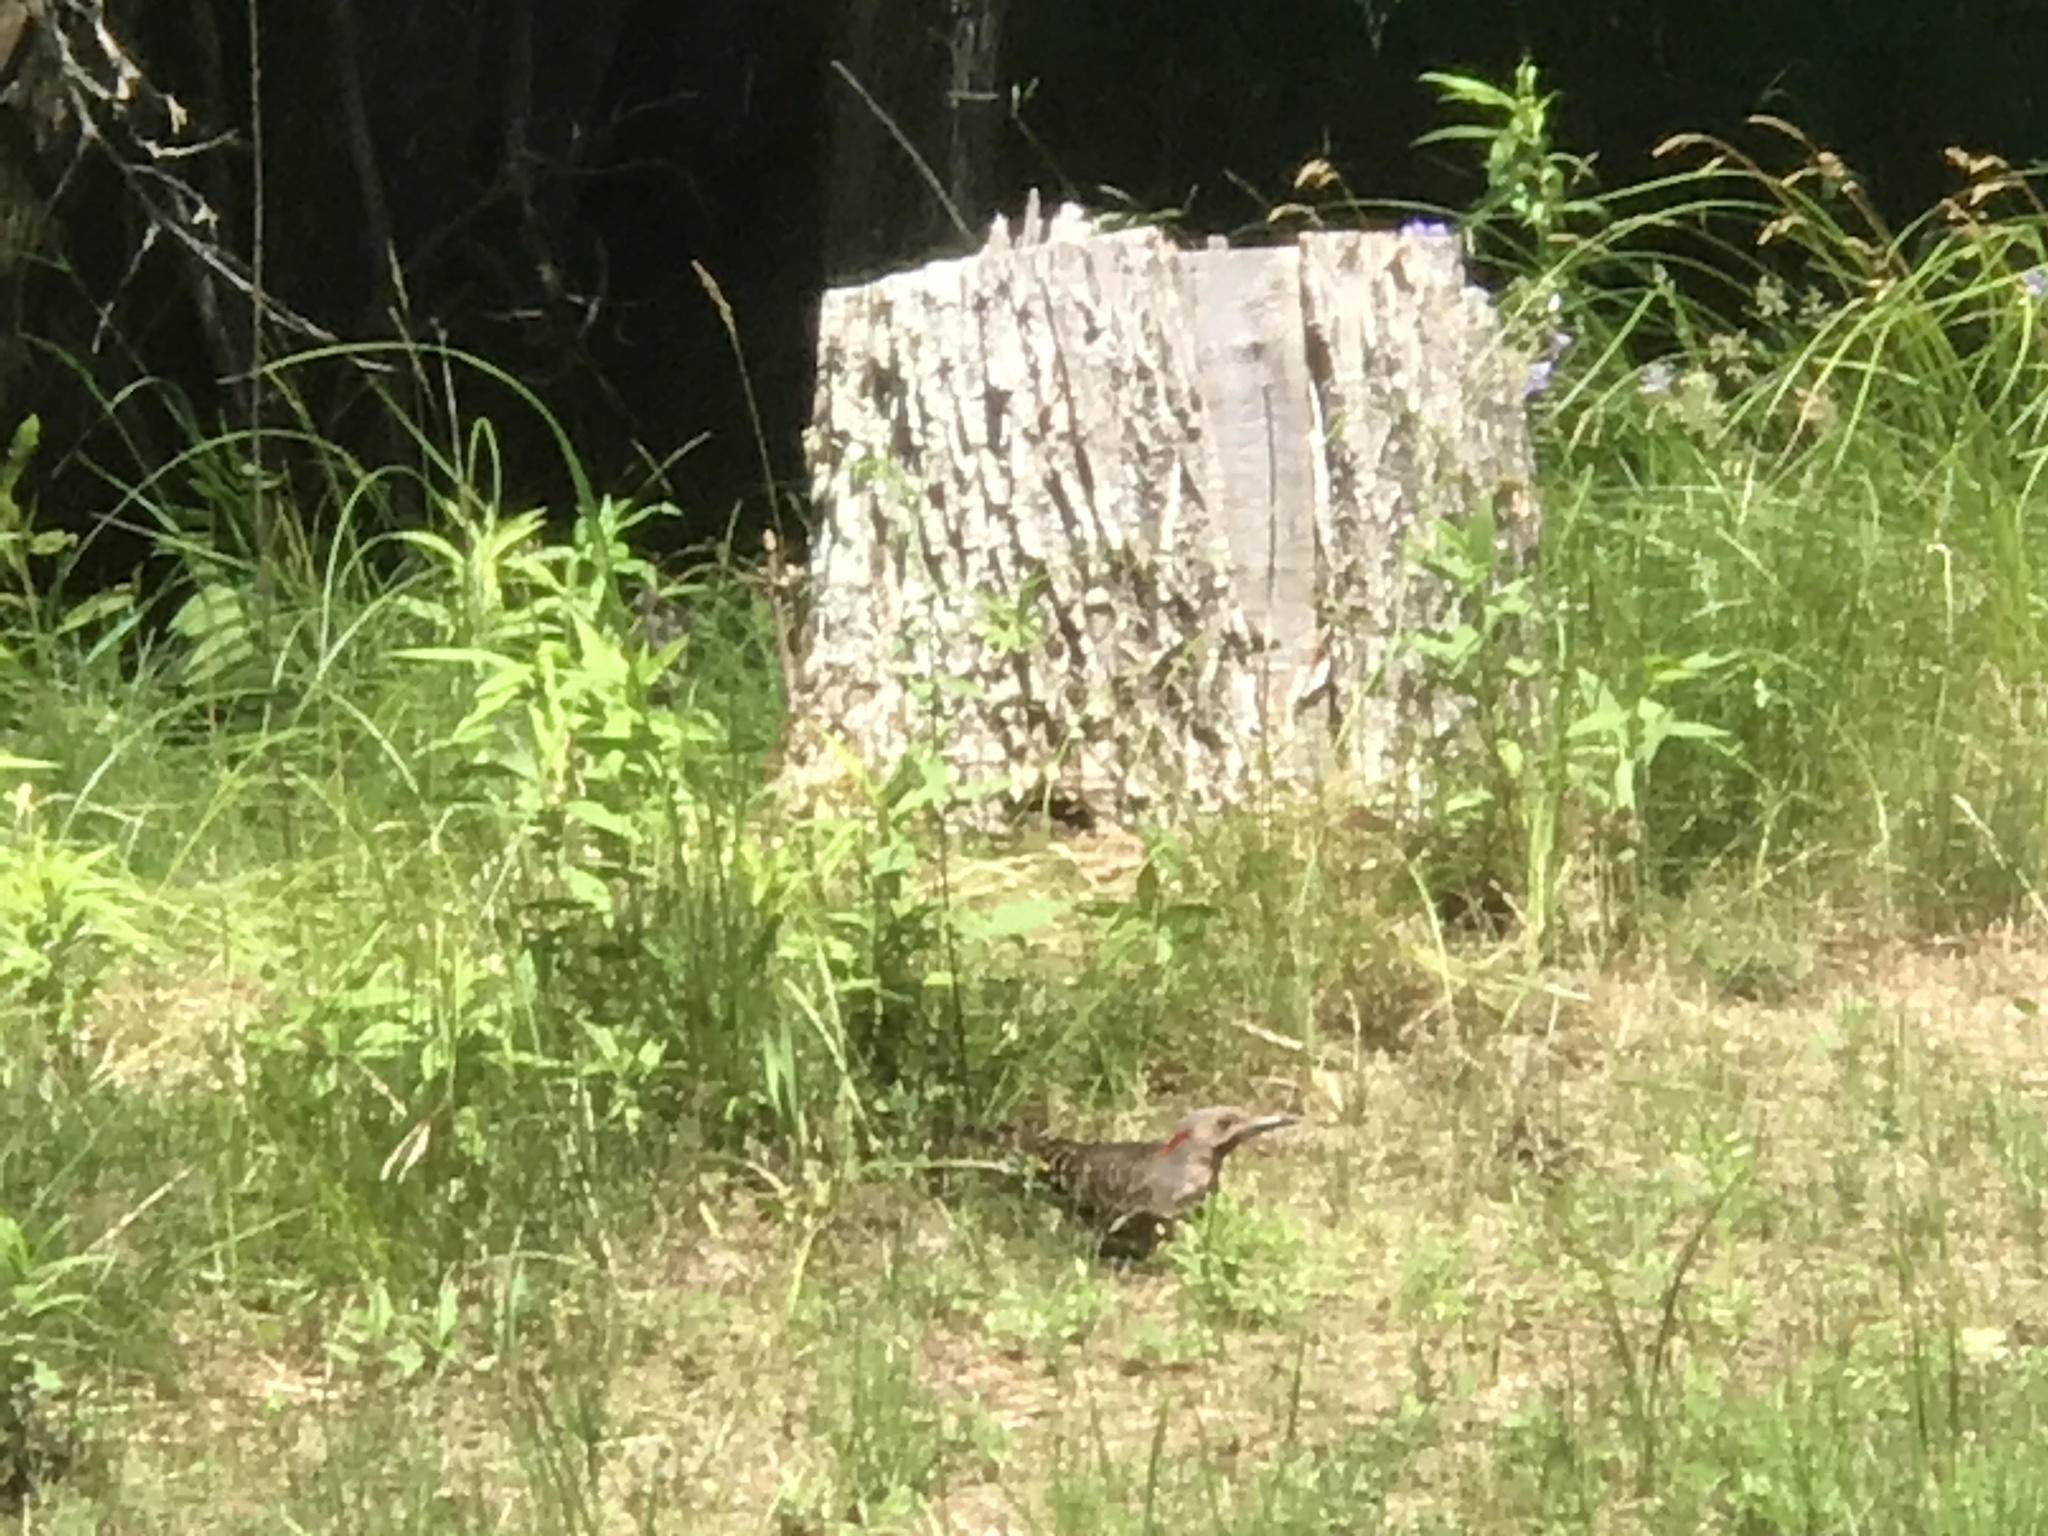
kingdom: Animalia
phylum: Chordata
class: Aves
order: Piciformes
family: Picidae
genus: Colaptes
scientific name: Colaptes auratus
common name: Northern flicker
